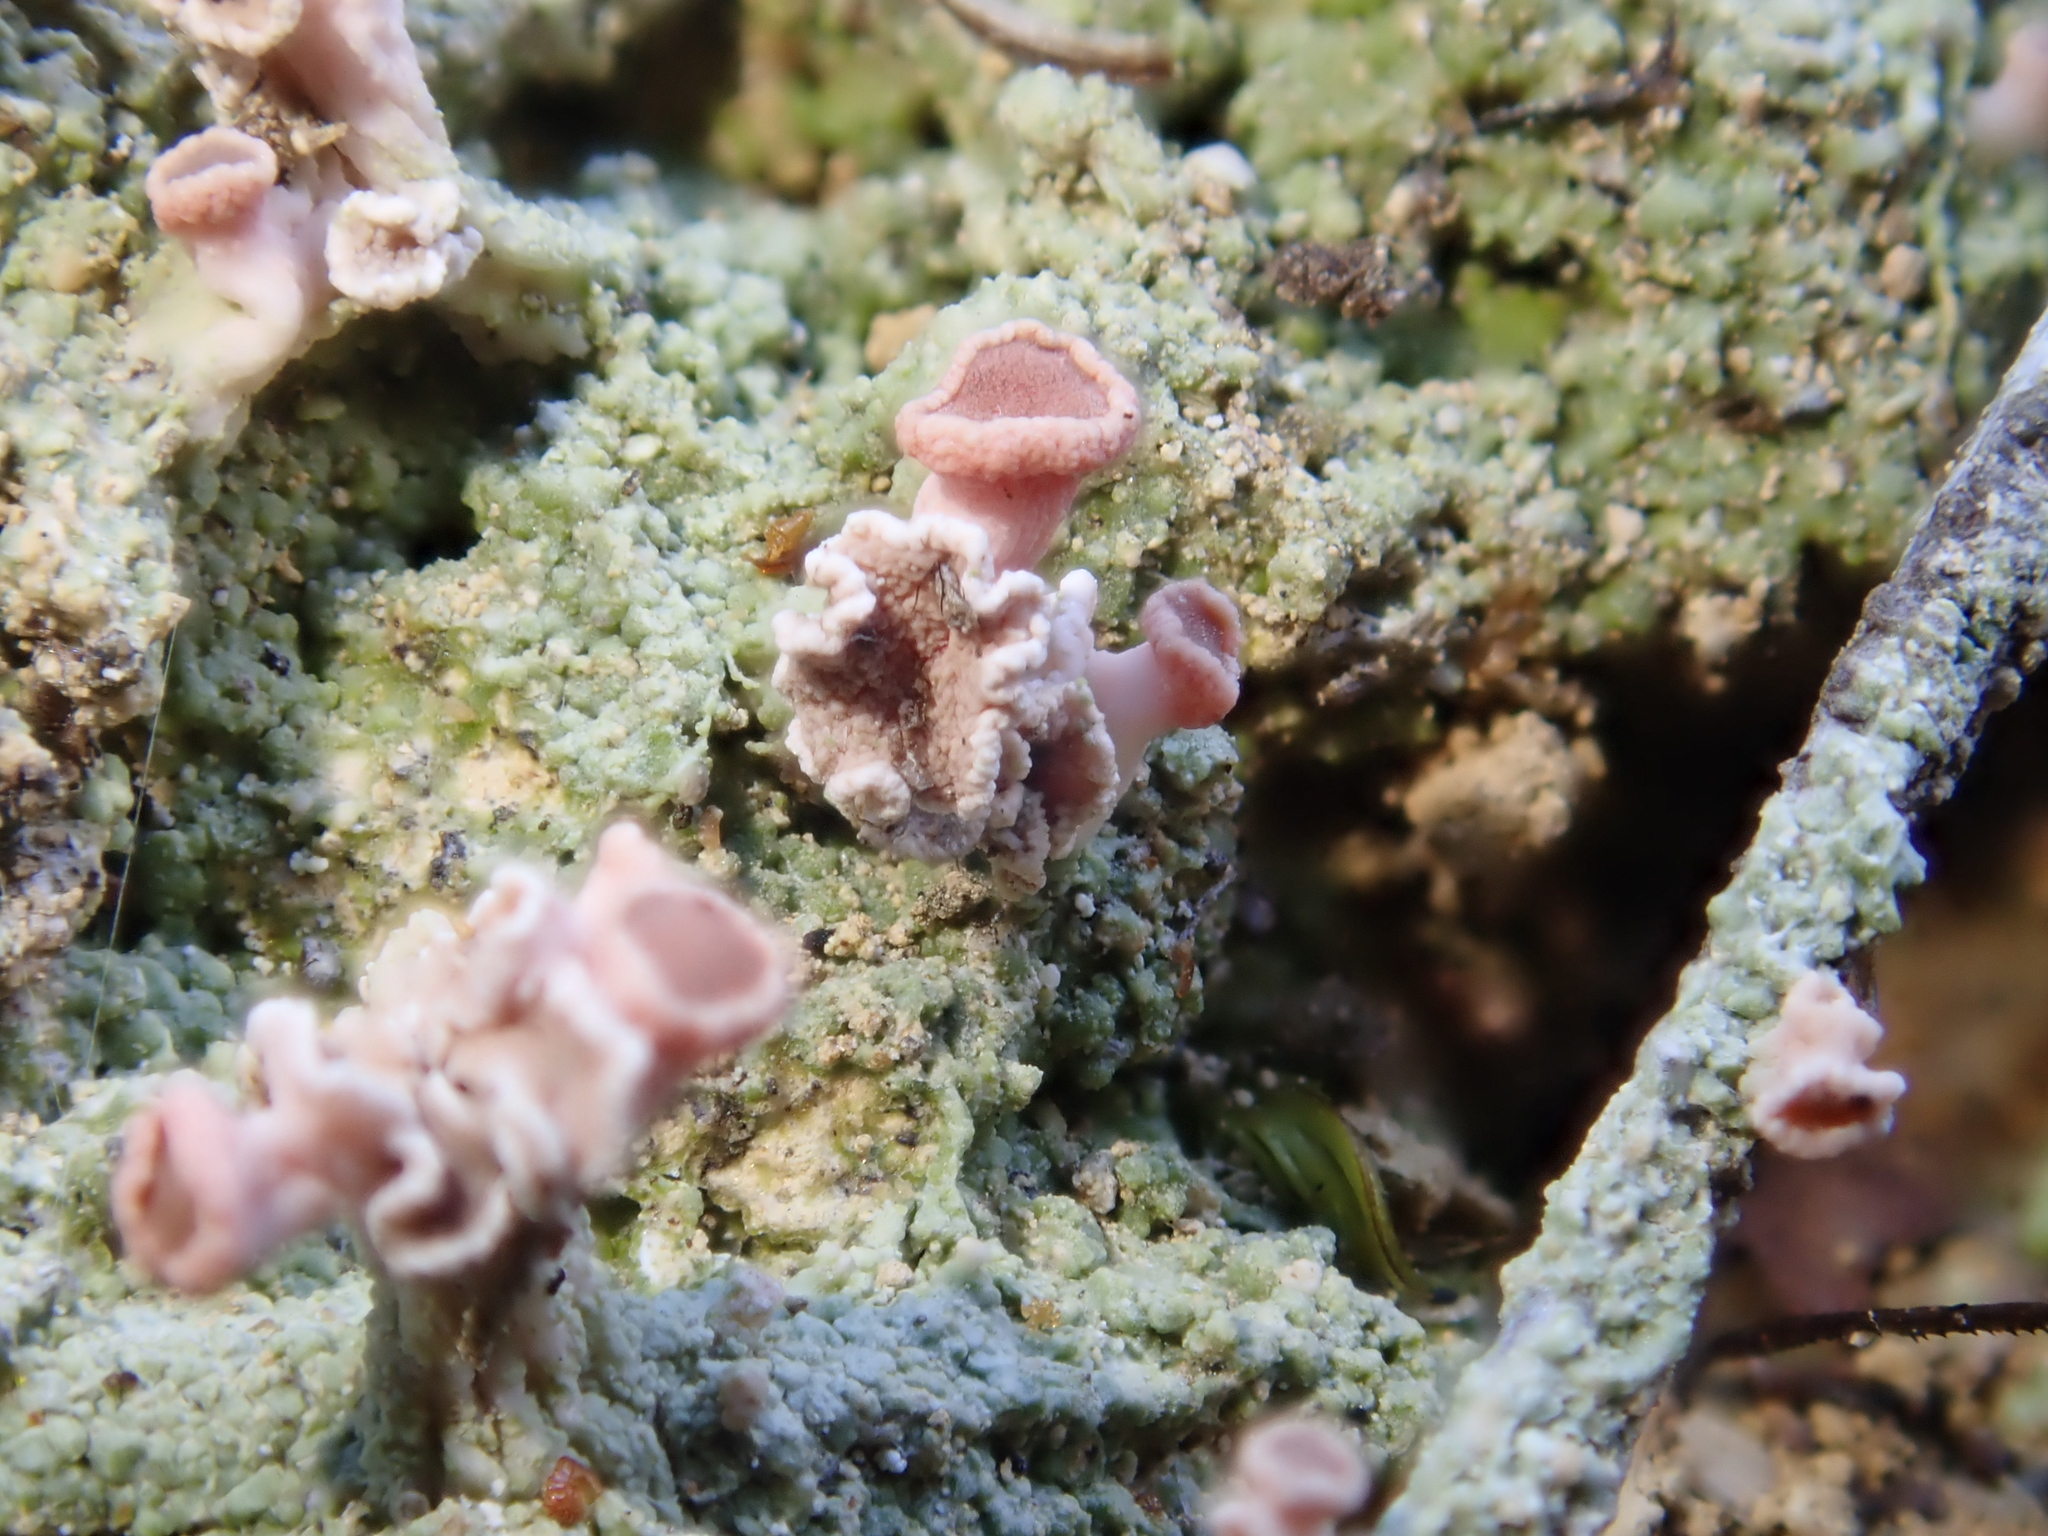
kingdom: Fungi
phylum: Ascomycota
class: Lecanoromycetes
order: Baeomycetales
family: Baeomycetaceae
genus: Baeomyces
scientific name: Baeomyces heteromorphus
